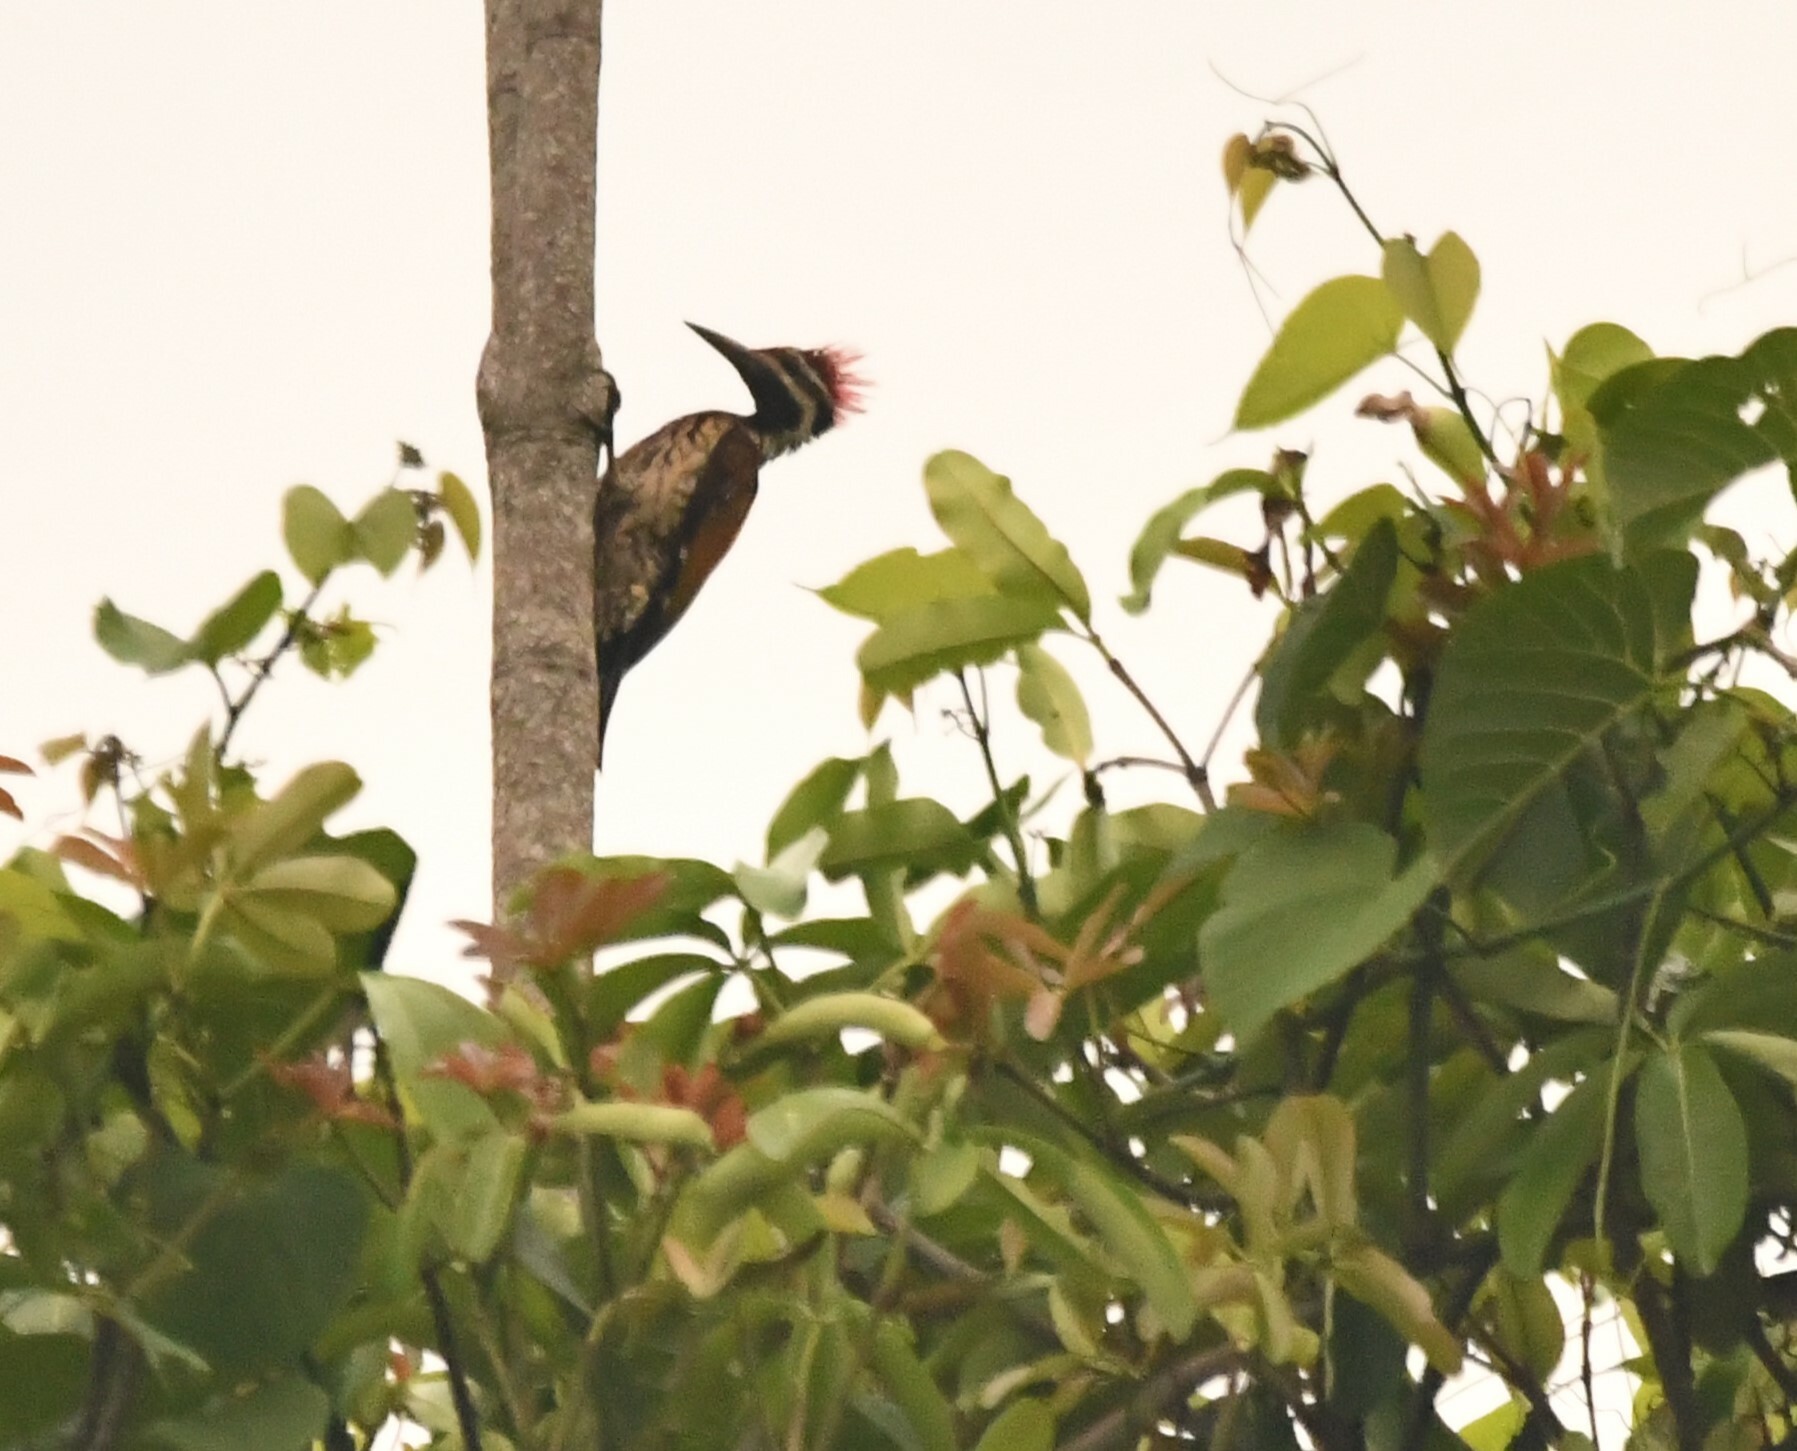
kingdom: Animalia
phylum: Chordata
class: Aves
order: Piciformes
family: Picidae
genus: Dinopium
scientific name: Dinopium benghalense
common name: Black-rumped flameback
